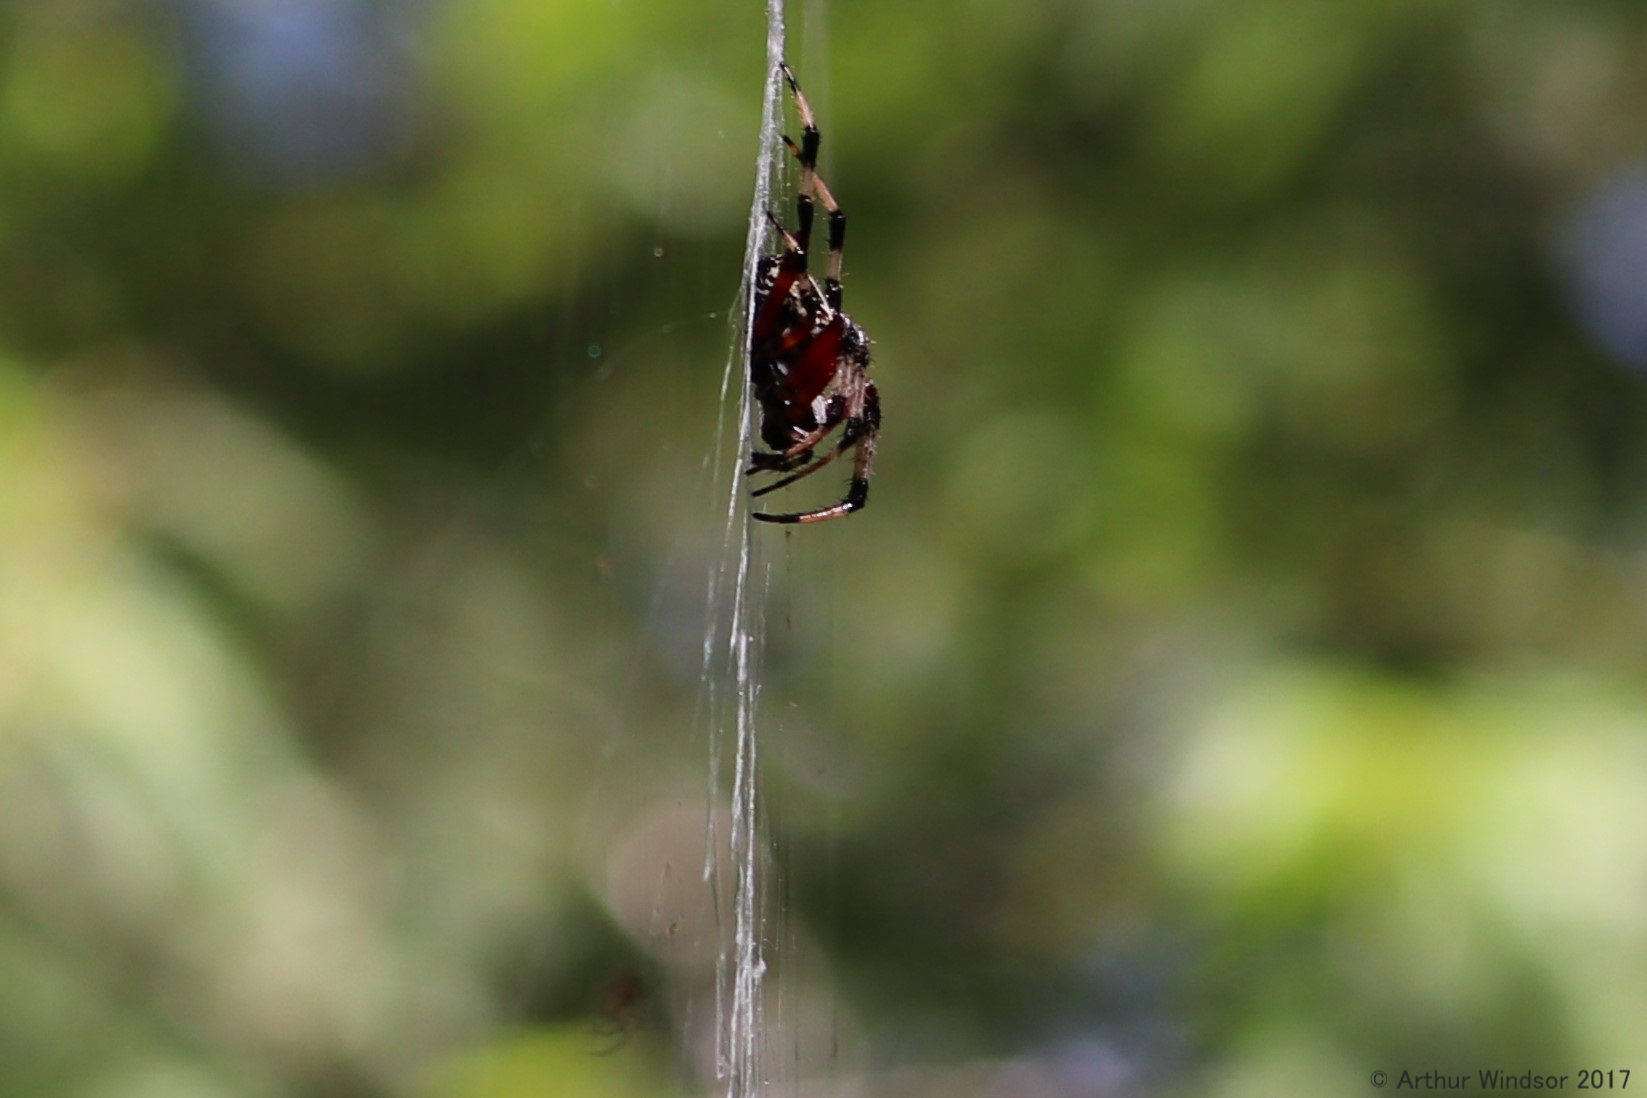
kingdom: Animalia
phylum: Arthropoda
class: Arachnida
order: Araneae
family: Araneidae
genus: Neoscona
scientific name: Neoscona domiciliorum
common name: Red-femured spotted orbweaver
